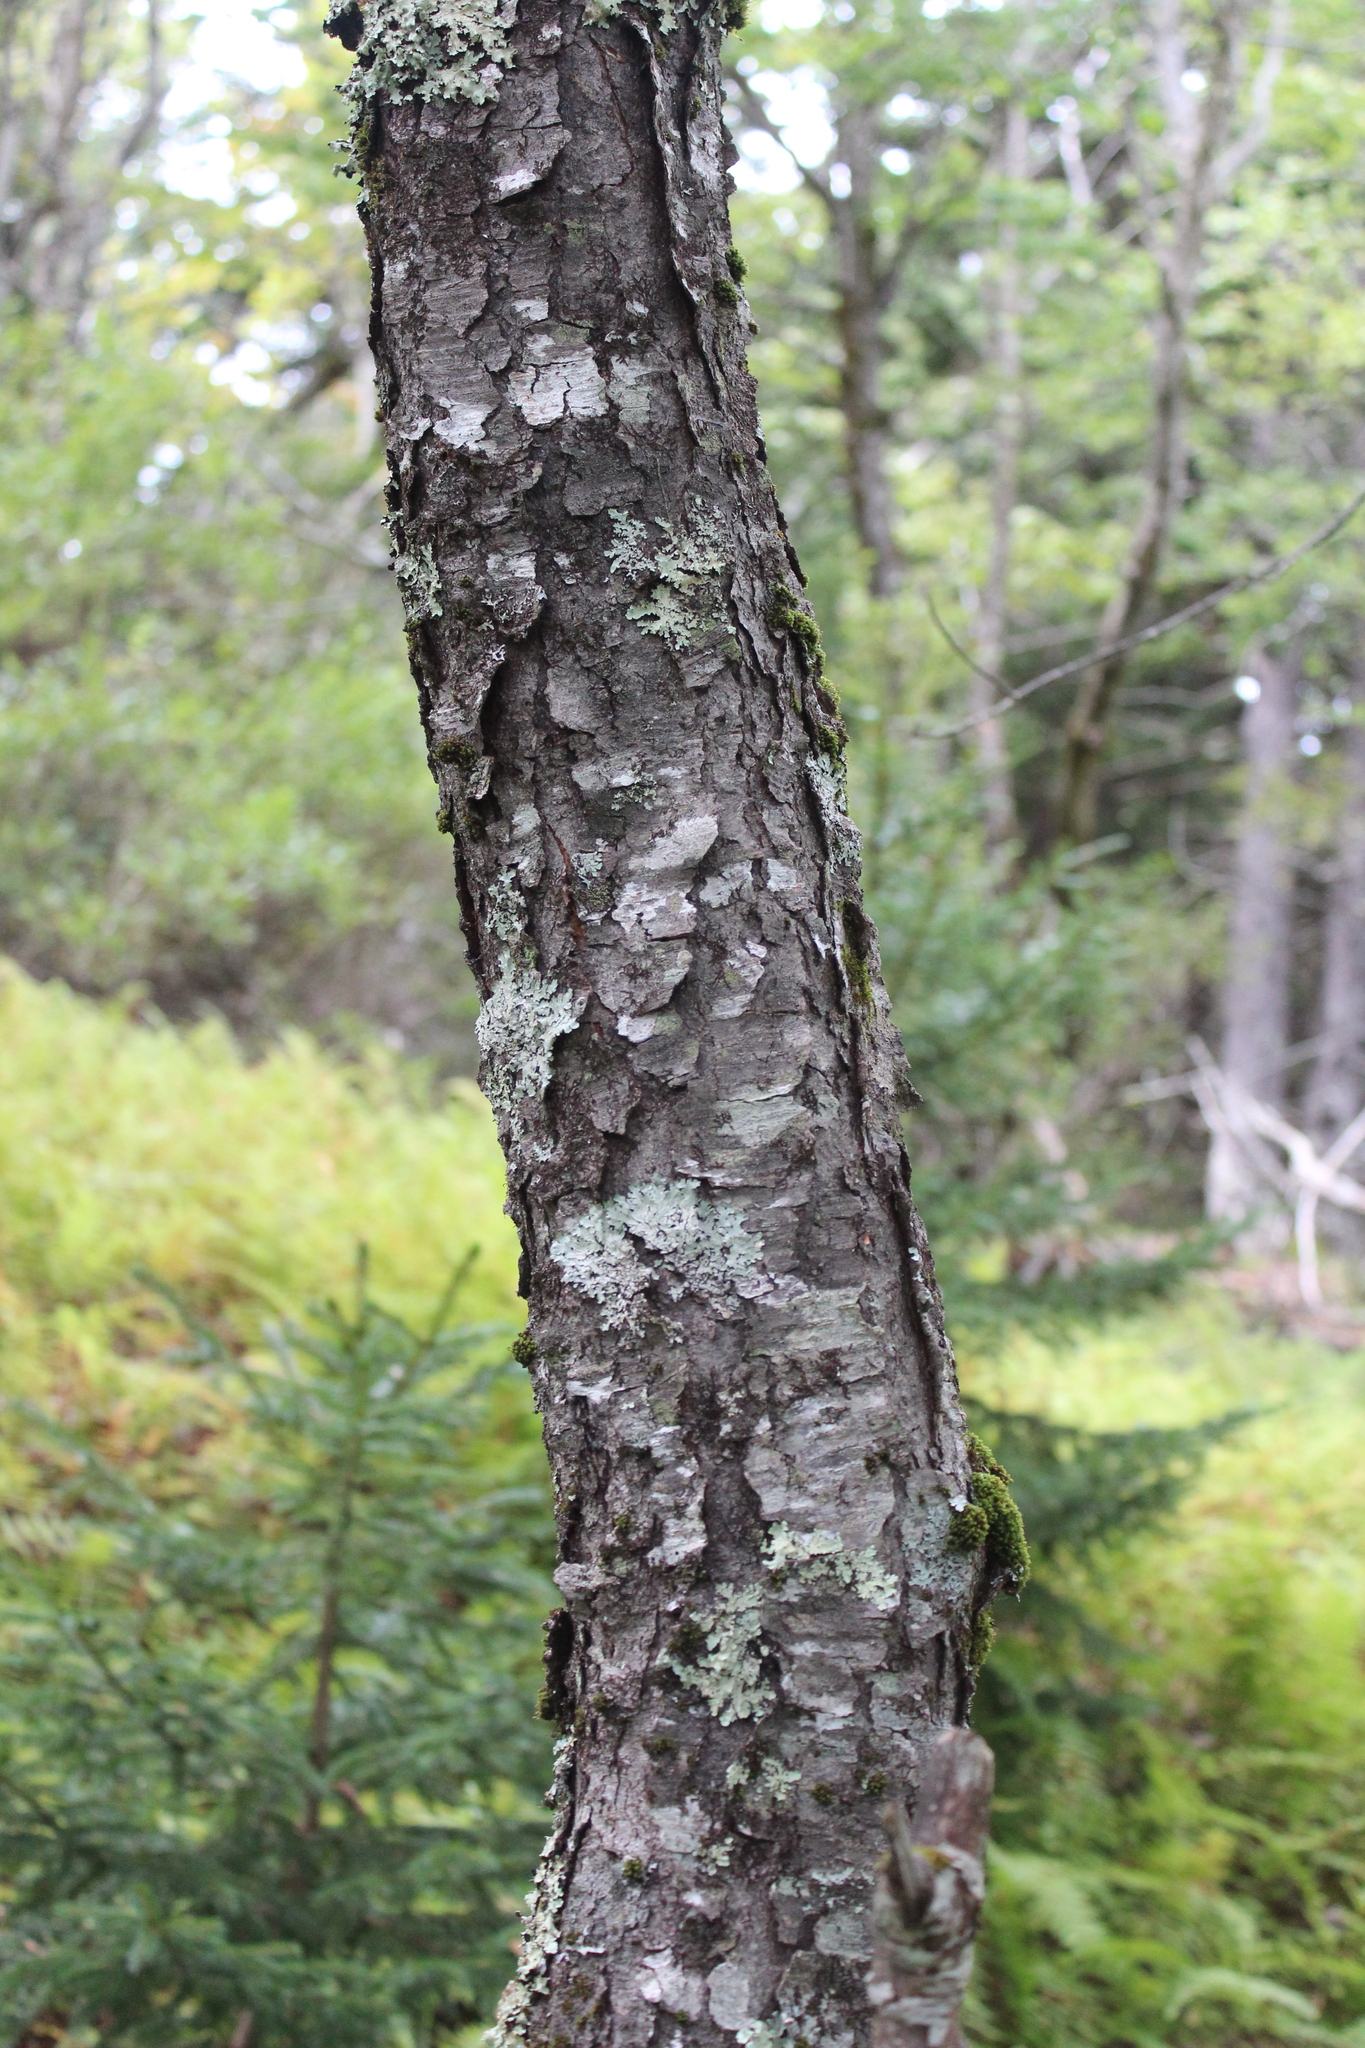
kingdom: Plantae
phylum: Tracheophyta
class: Magnoliopsida
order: Rosales
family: Rosaceae
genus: Prunus
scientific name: Prunus serotina
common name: Black cherry
